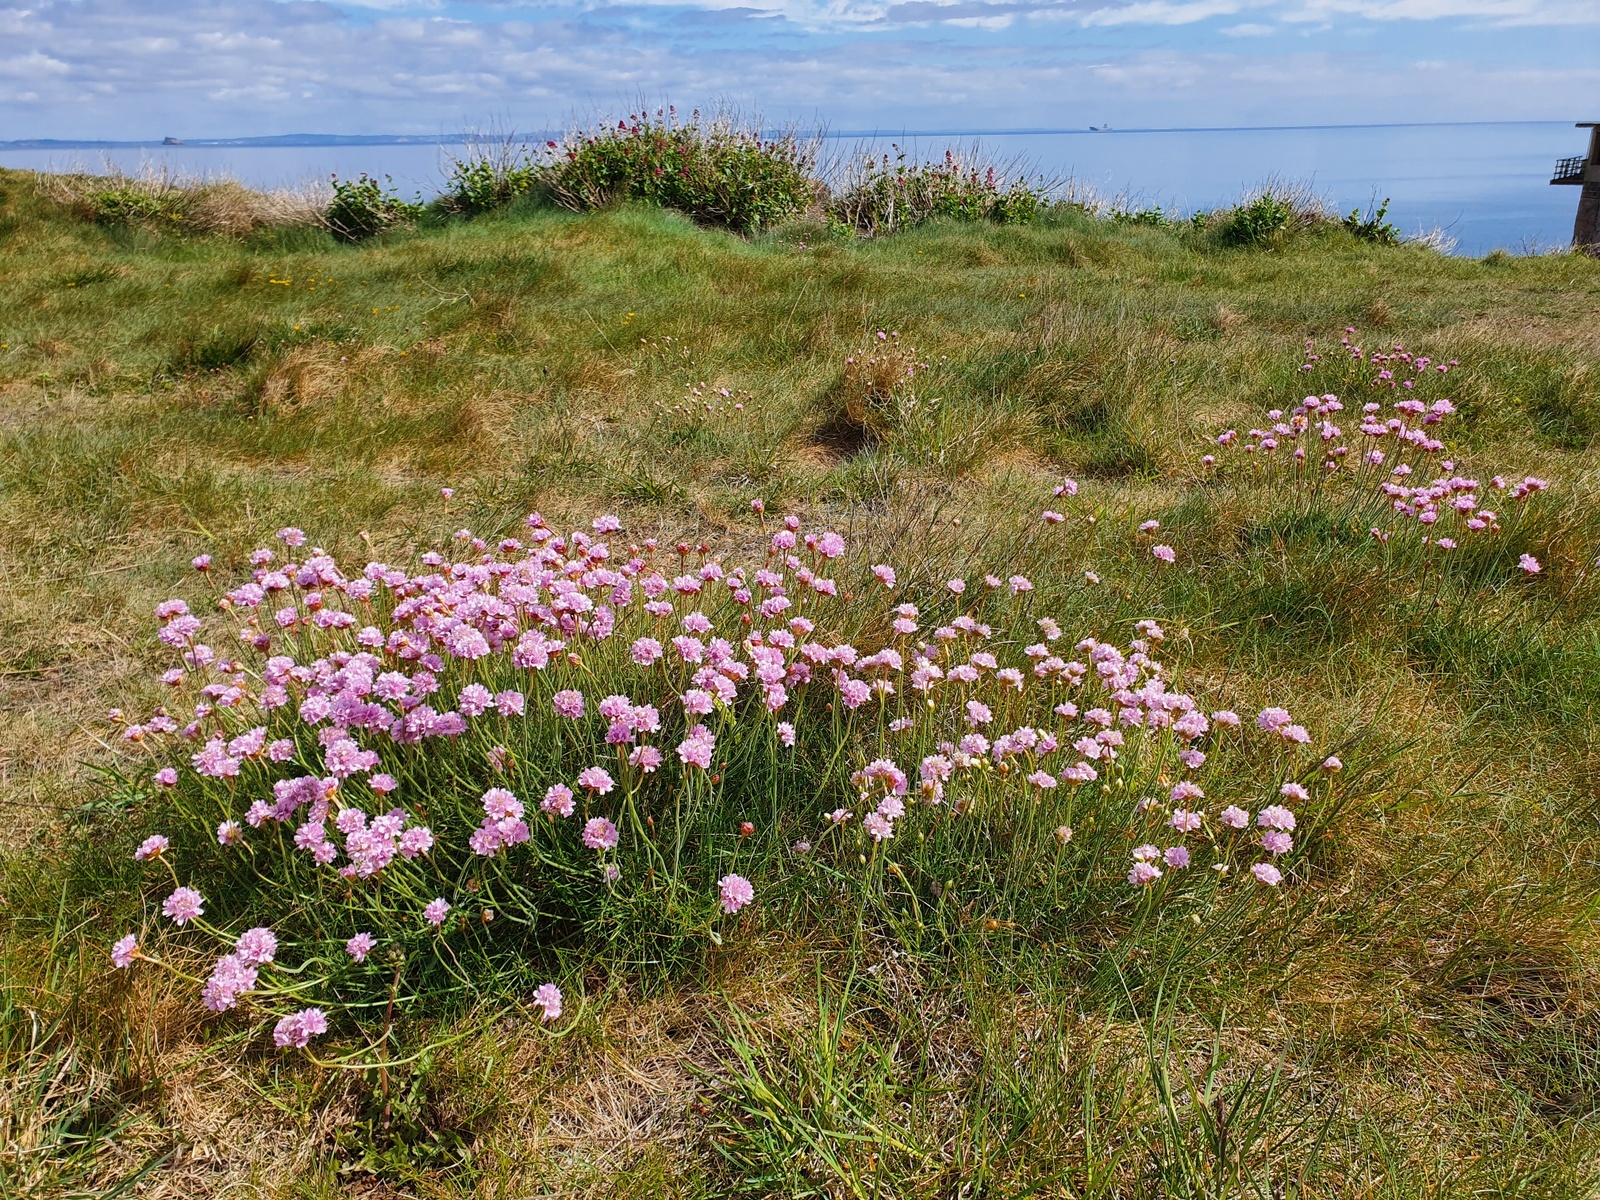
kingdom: Plantae
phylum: Tracheophyta
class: Magnoliopsida
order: Caryophyllales
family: Plumbaginaceae
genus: Armeria
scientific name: Armeria maritima
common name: Thrift
